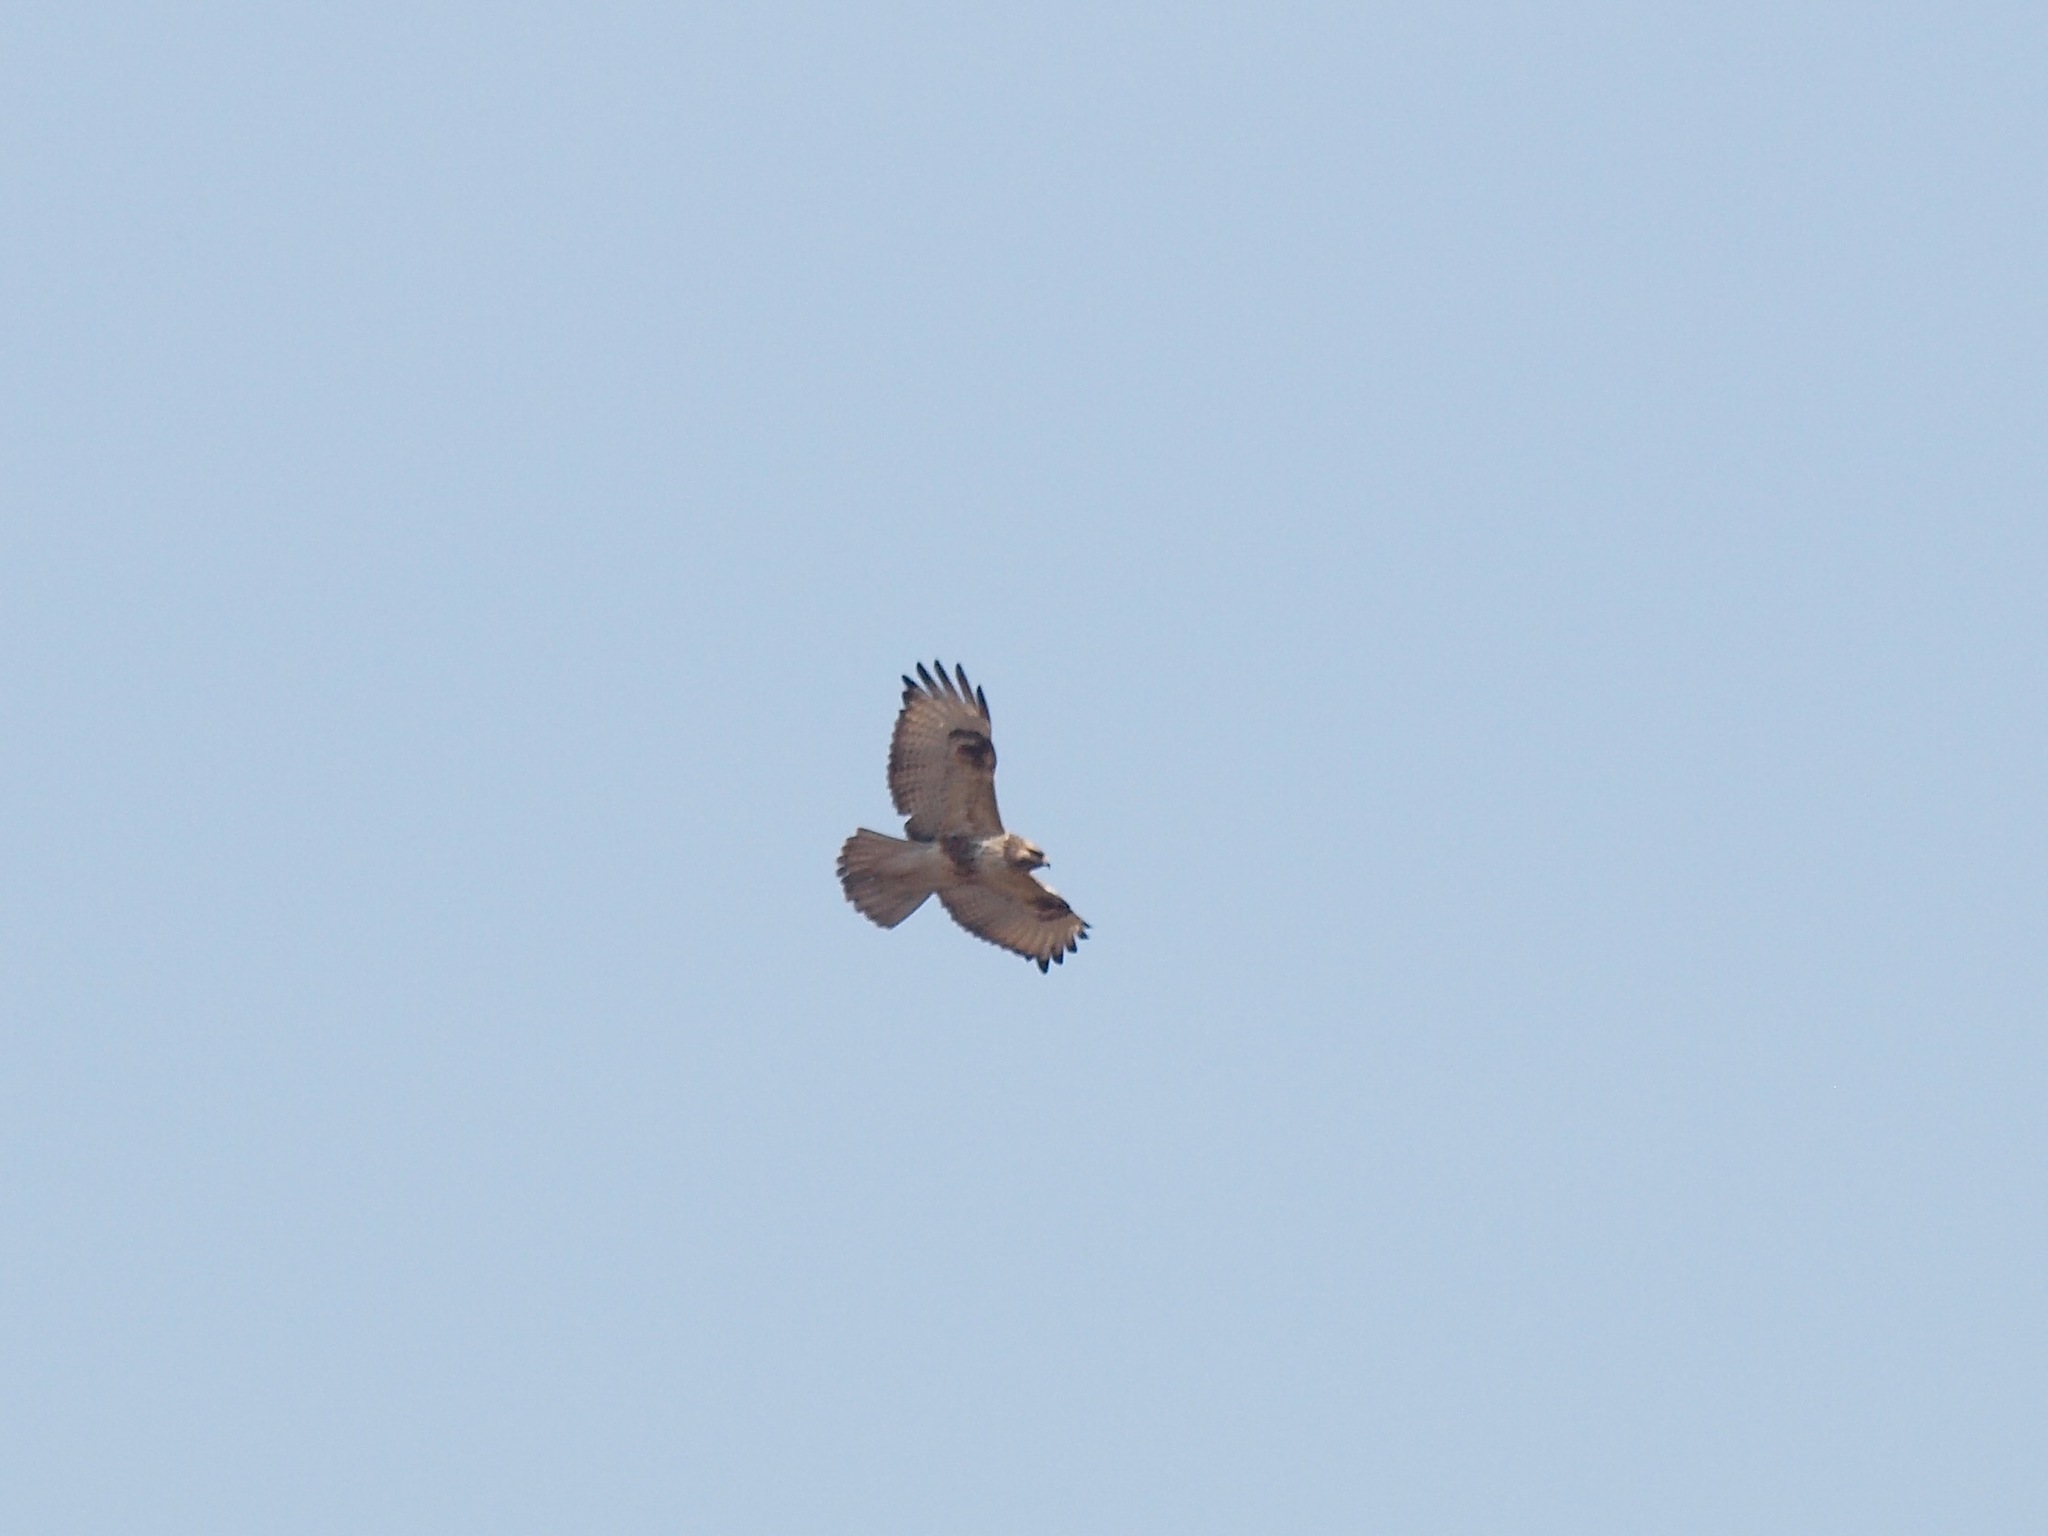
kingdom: Animalia
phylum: Chordata
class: Aves
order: Accipitriformes
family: Accipitridae
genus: Buteo
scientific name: Buteo japonicus
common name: Eastern buzzard
